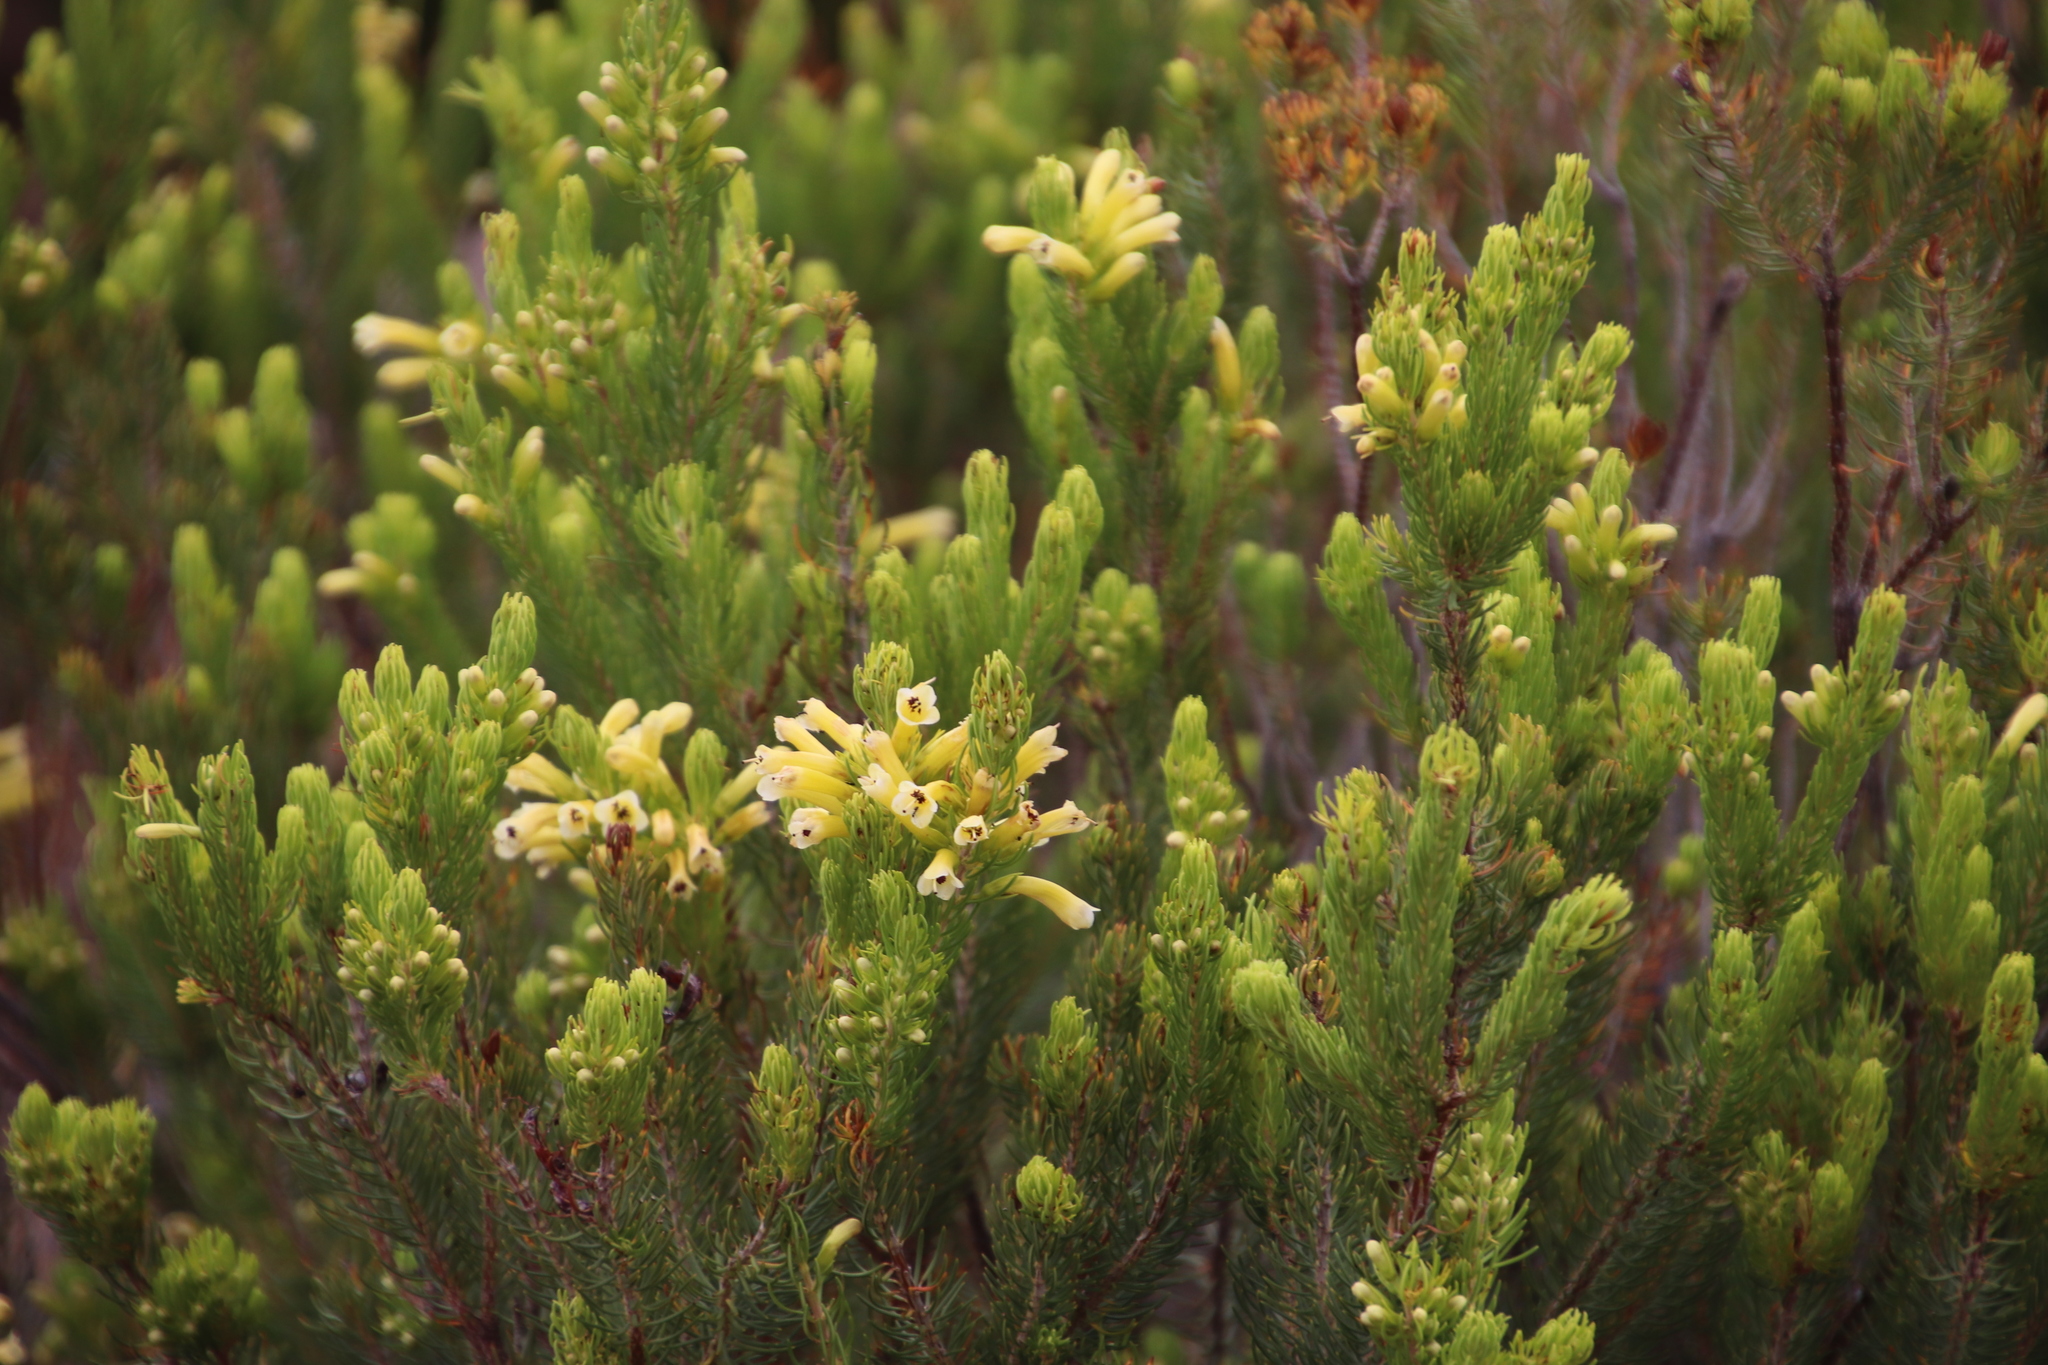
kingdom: Plantae
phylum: Tracheophyta
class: Magnoliopsida
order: Ericales
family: Ericaceae
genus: Erica
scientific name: Erica pinea
